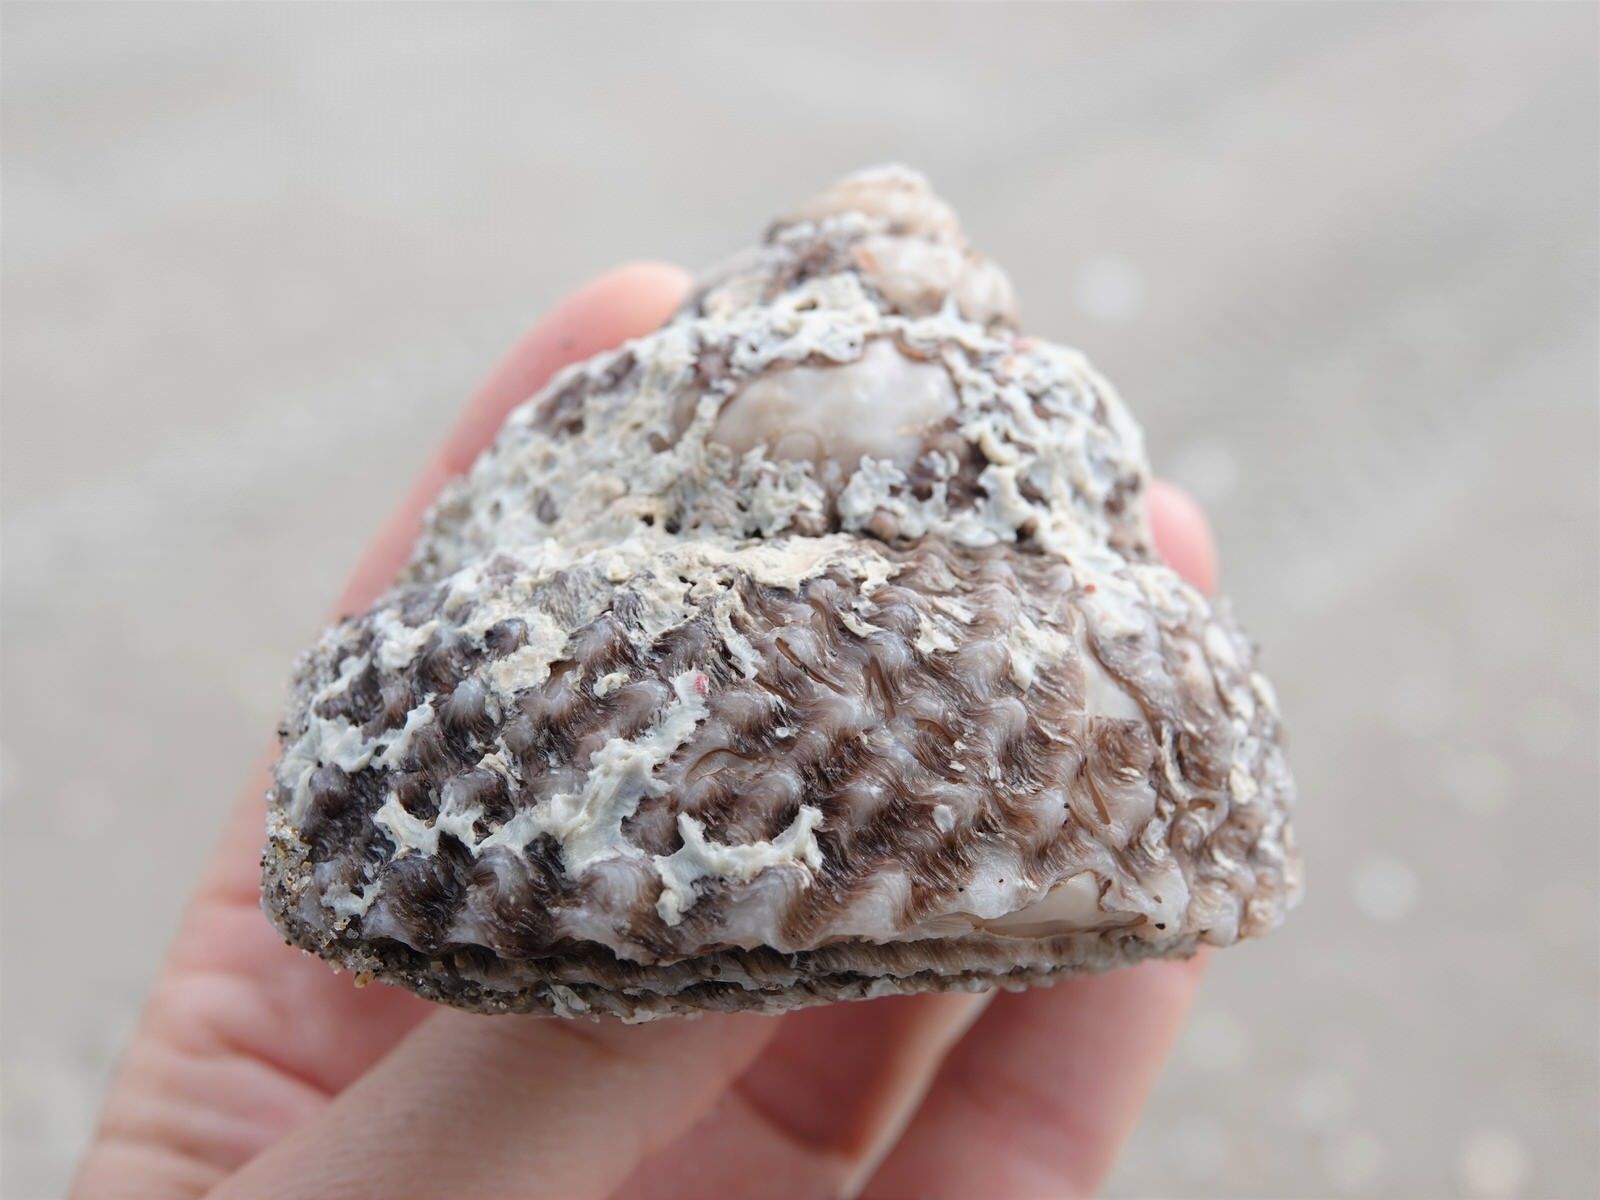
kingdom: Animalia
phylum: Mollusca
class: Gastropoda
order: Trochida
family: Turbinidae
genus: Cookia
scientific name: Cookia sulcata
